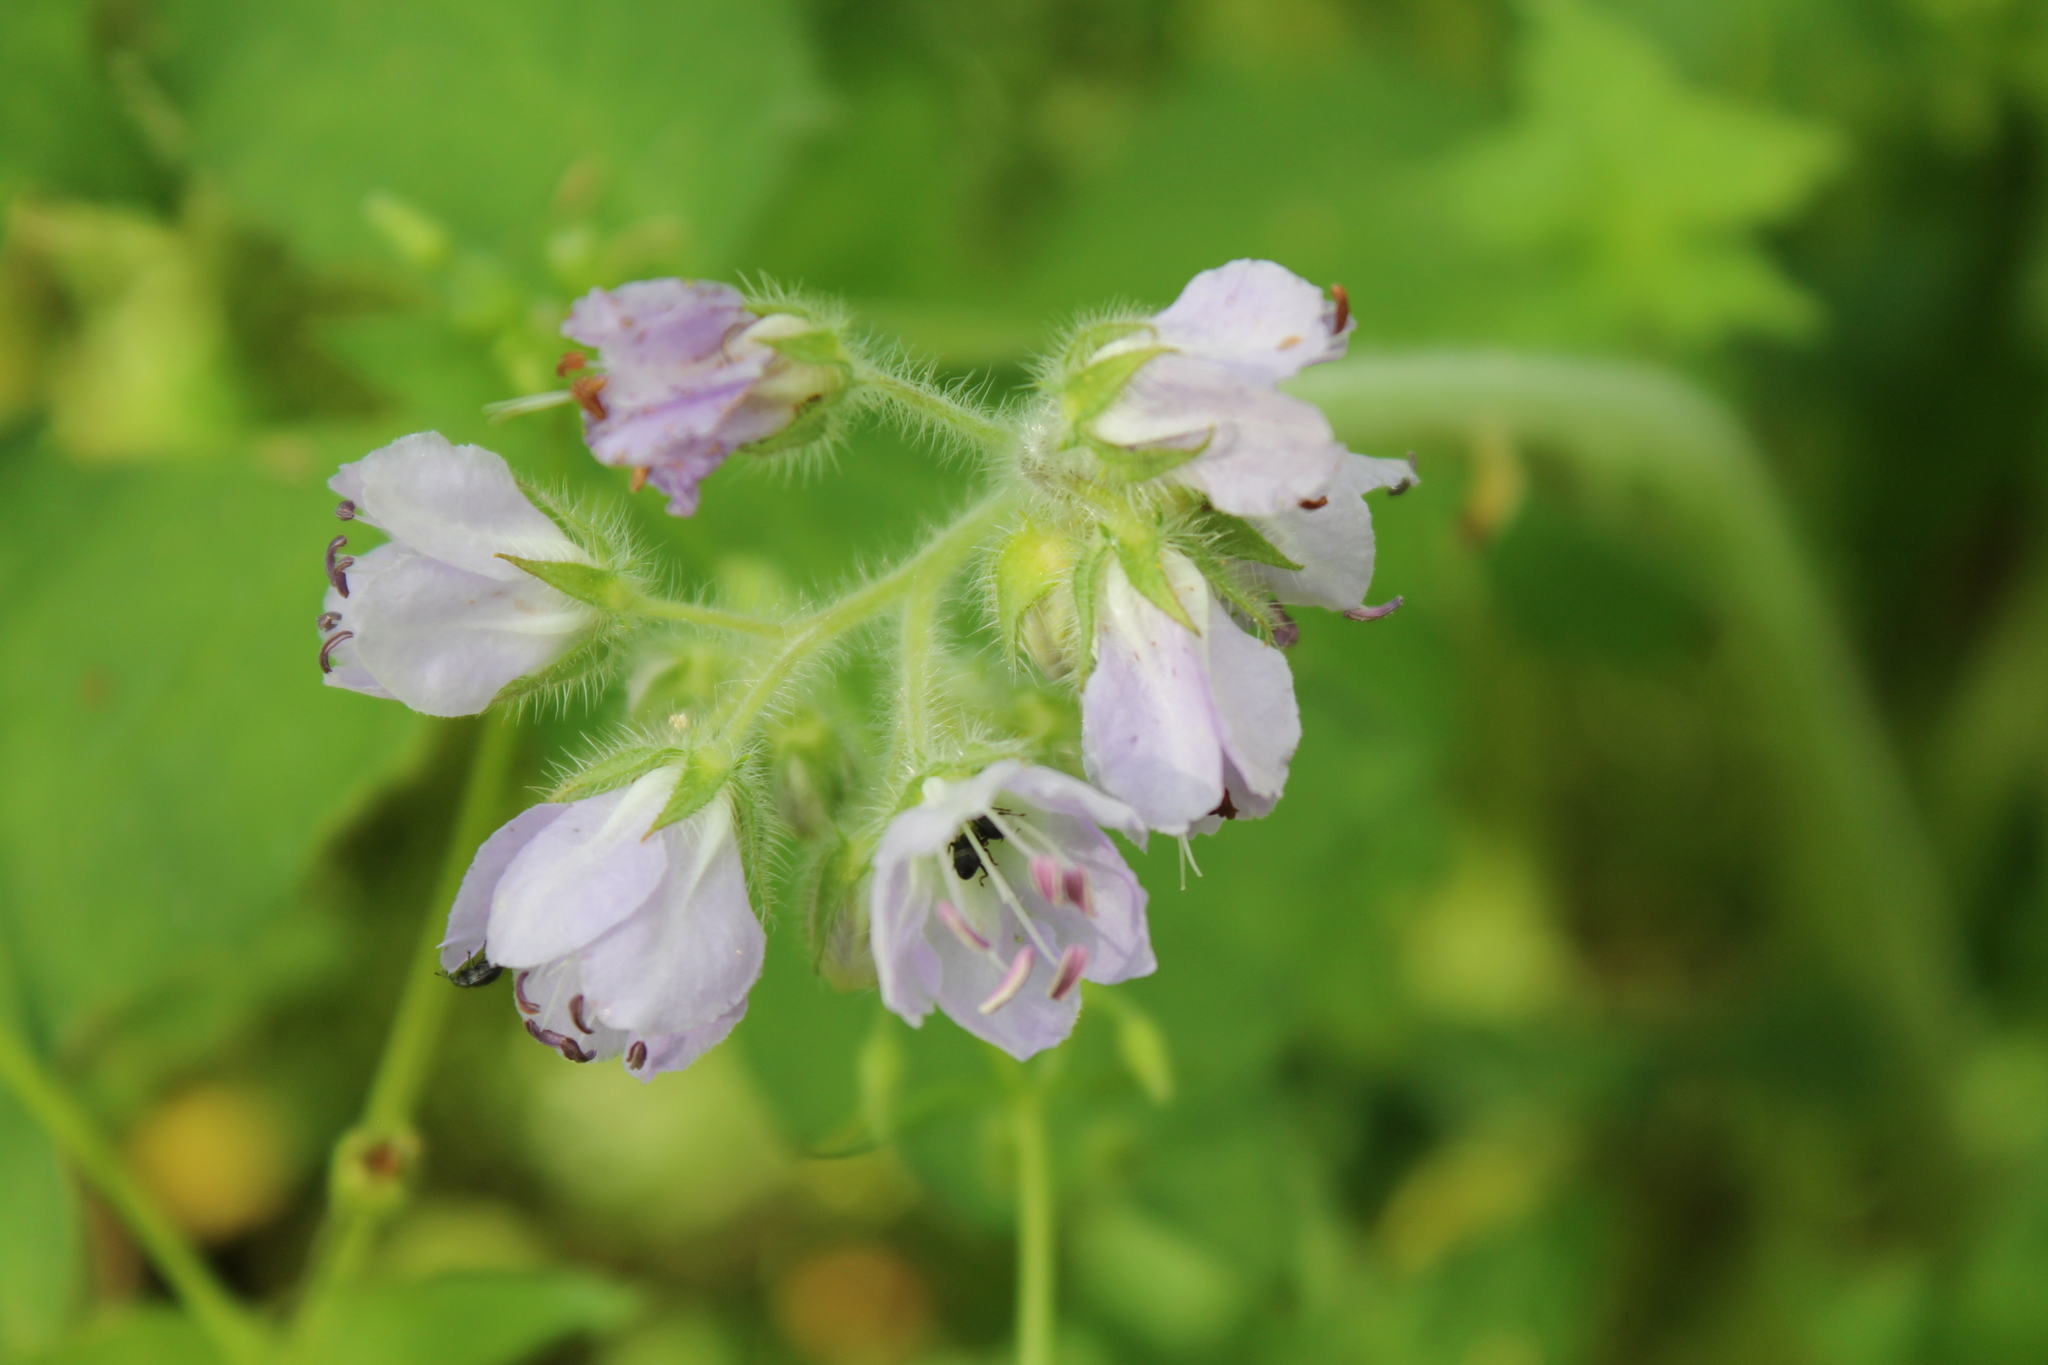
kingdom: Plantae
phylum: Tracheophyta
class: Magnoliopsida
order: Boraginales
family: Hydrophyllaceae
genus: Hydrophyllum
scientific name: Hydrophyllum appendiculatum
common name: Appendaged waterleaf
